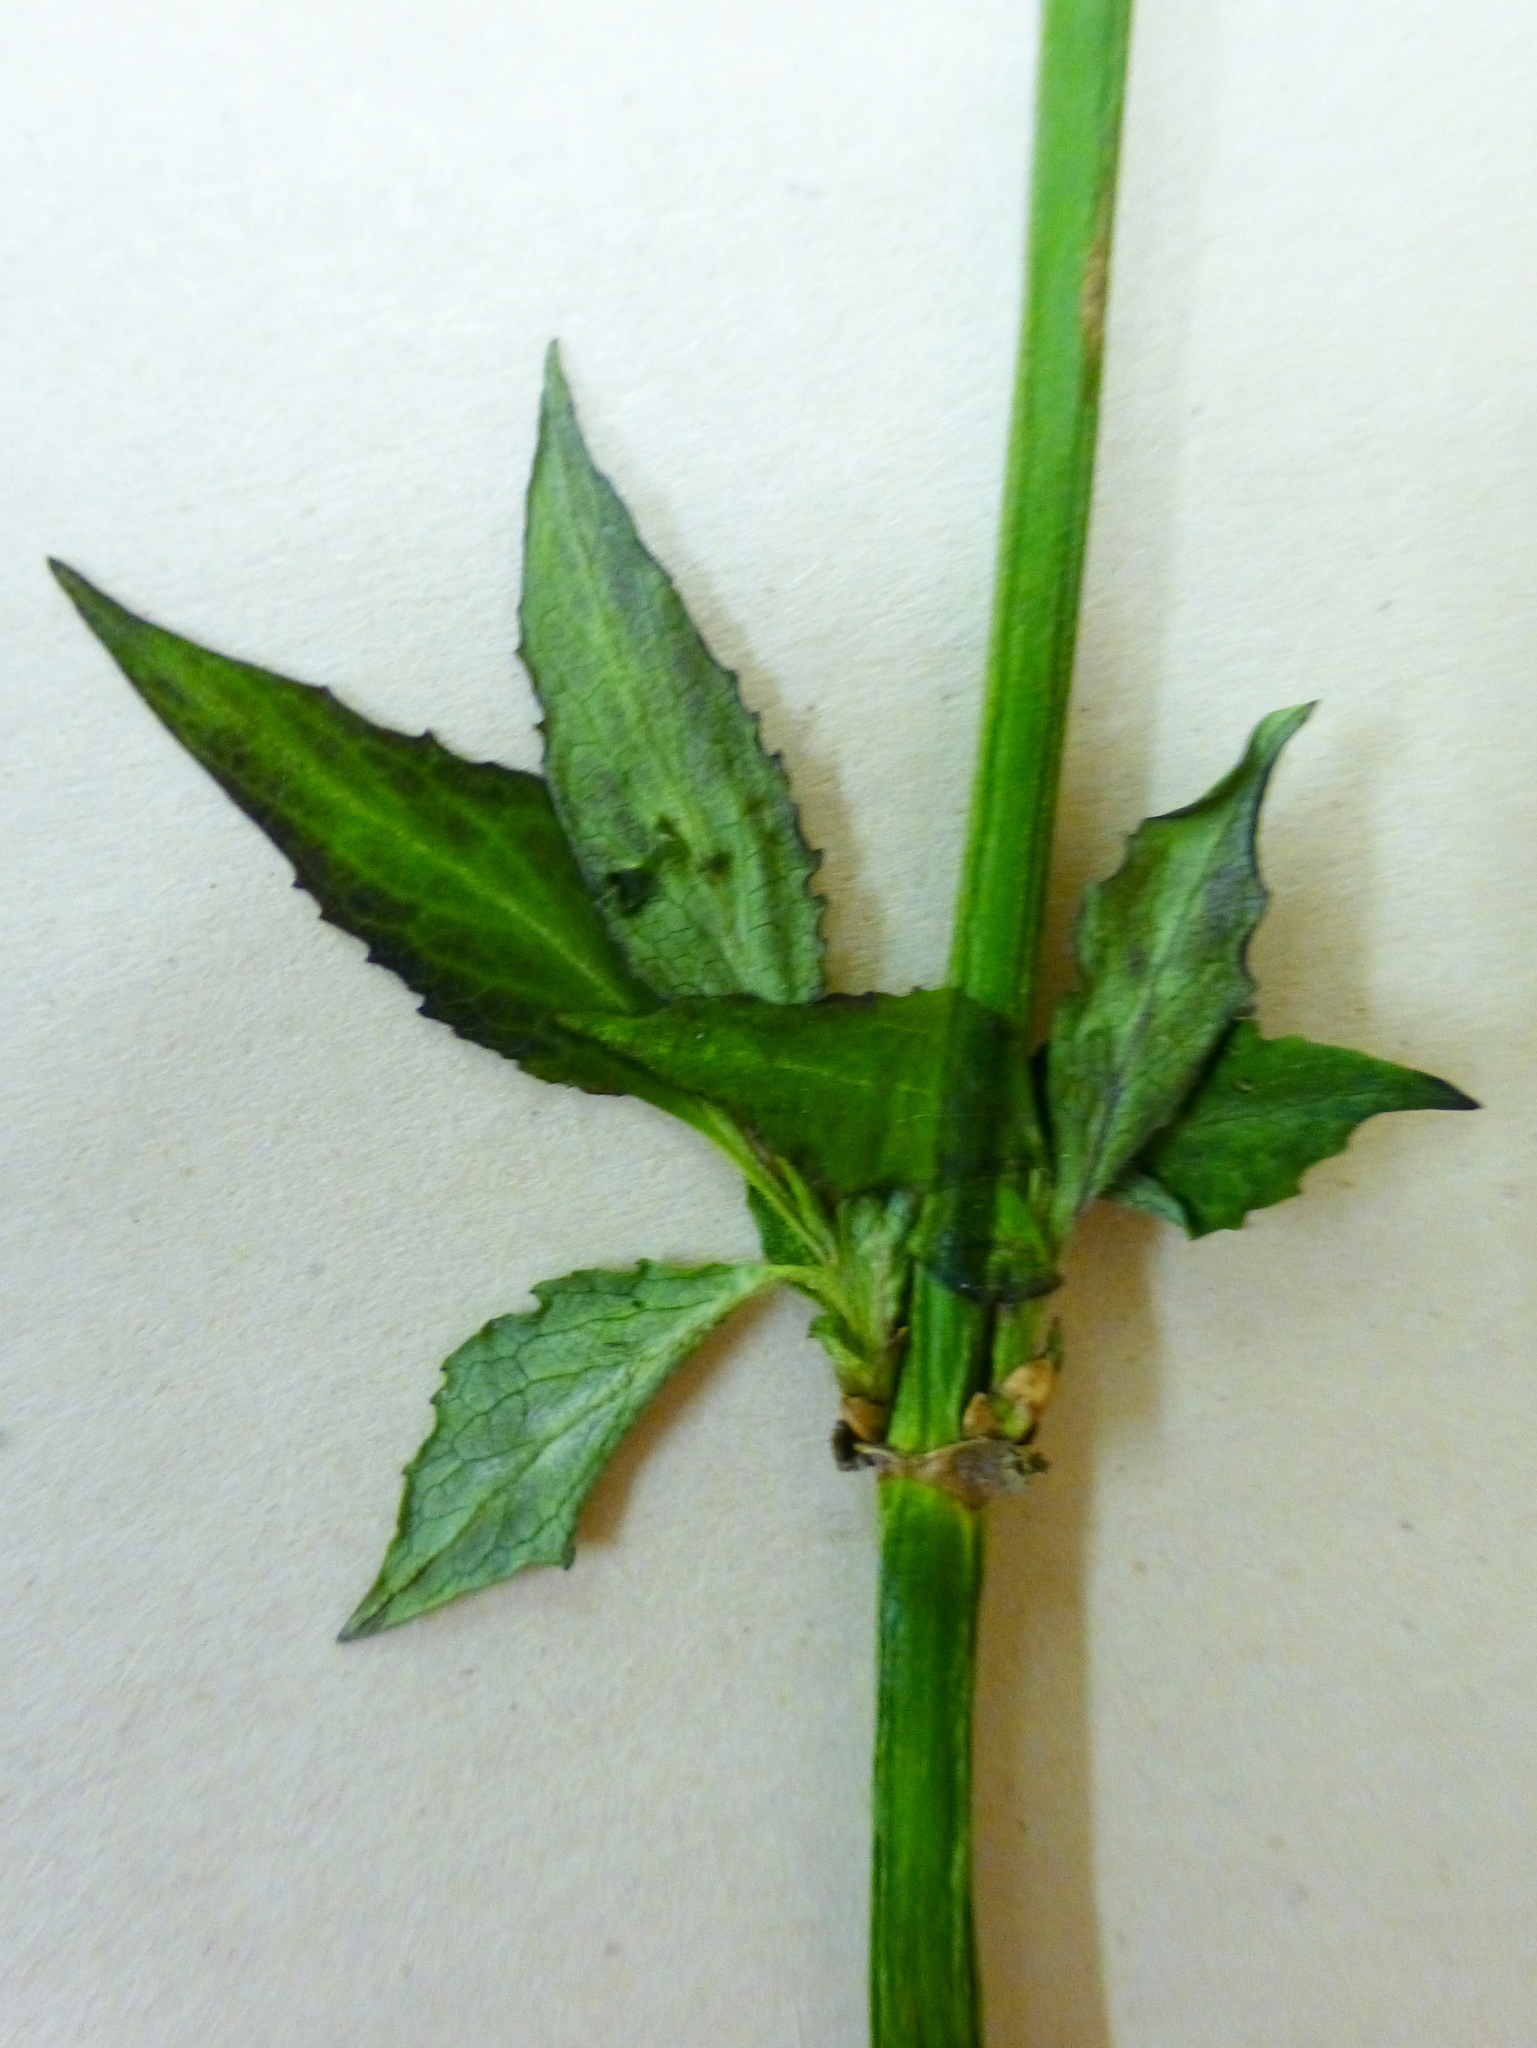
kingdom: Plantae
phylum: Tracheophyta
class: Magnoliopsida
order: Dipsacales
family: Caprifoliaceae
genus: Leycesteria
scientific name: Leycesteria formosa
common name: Himalayan honeysuckle
